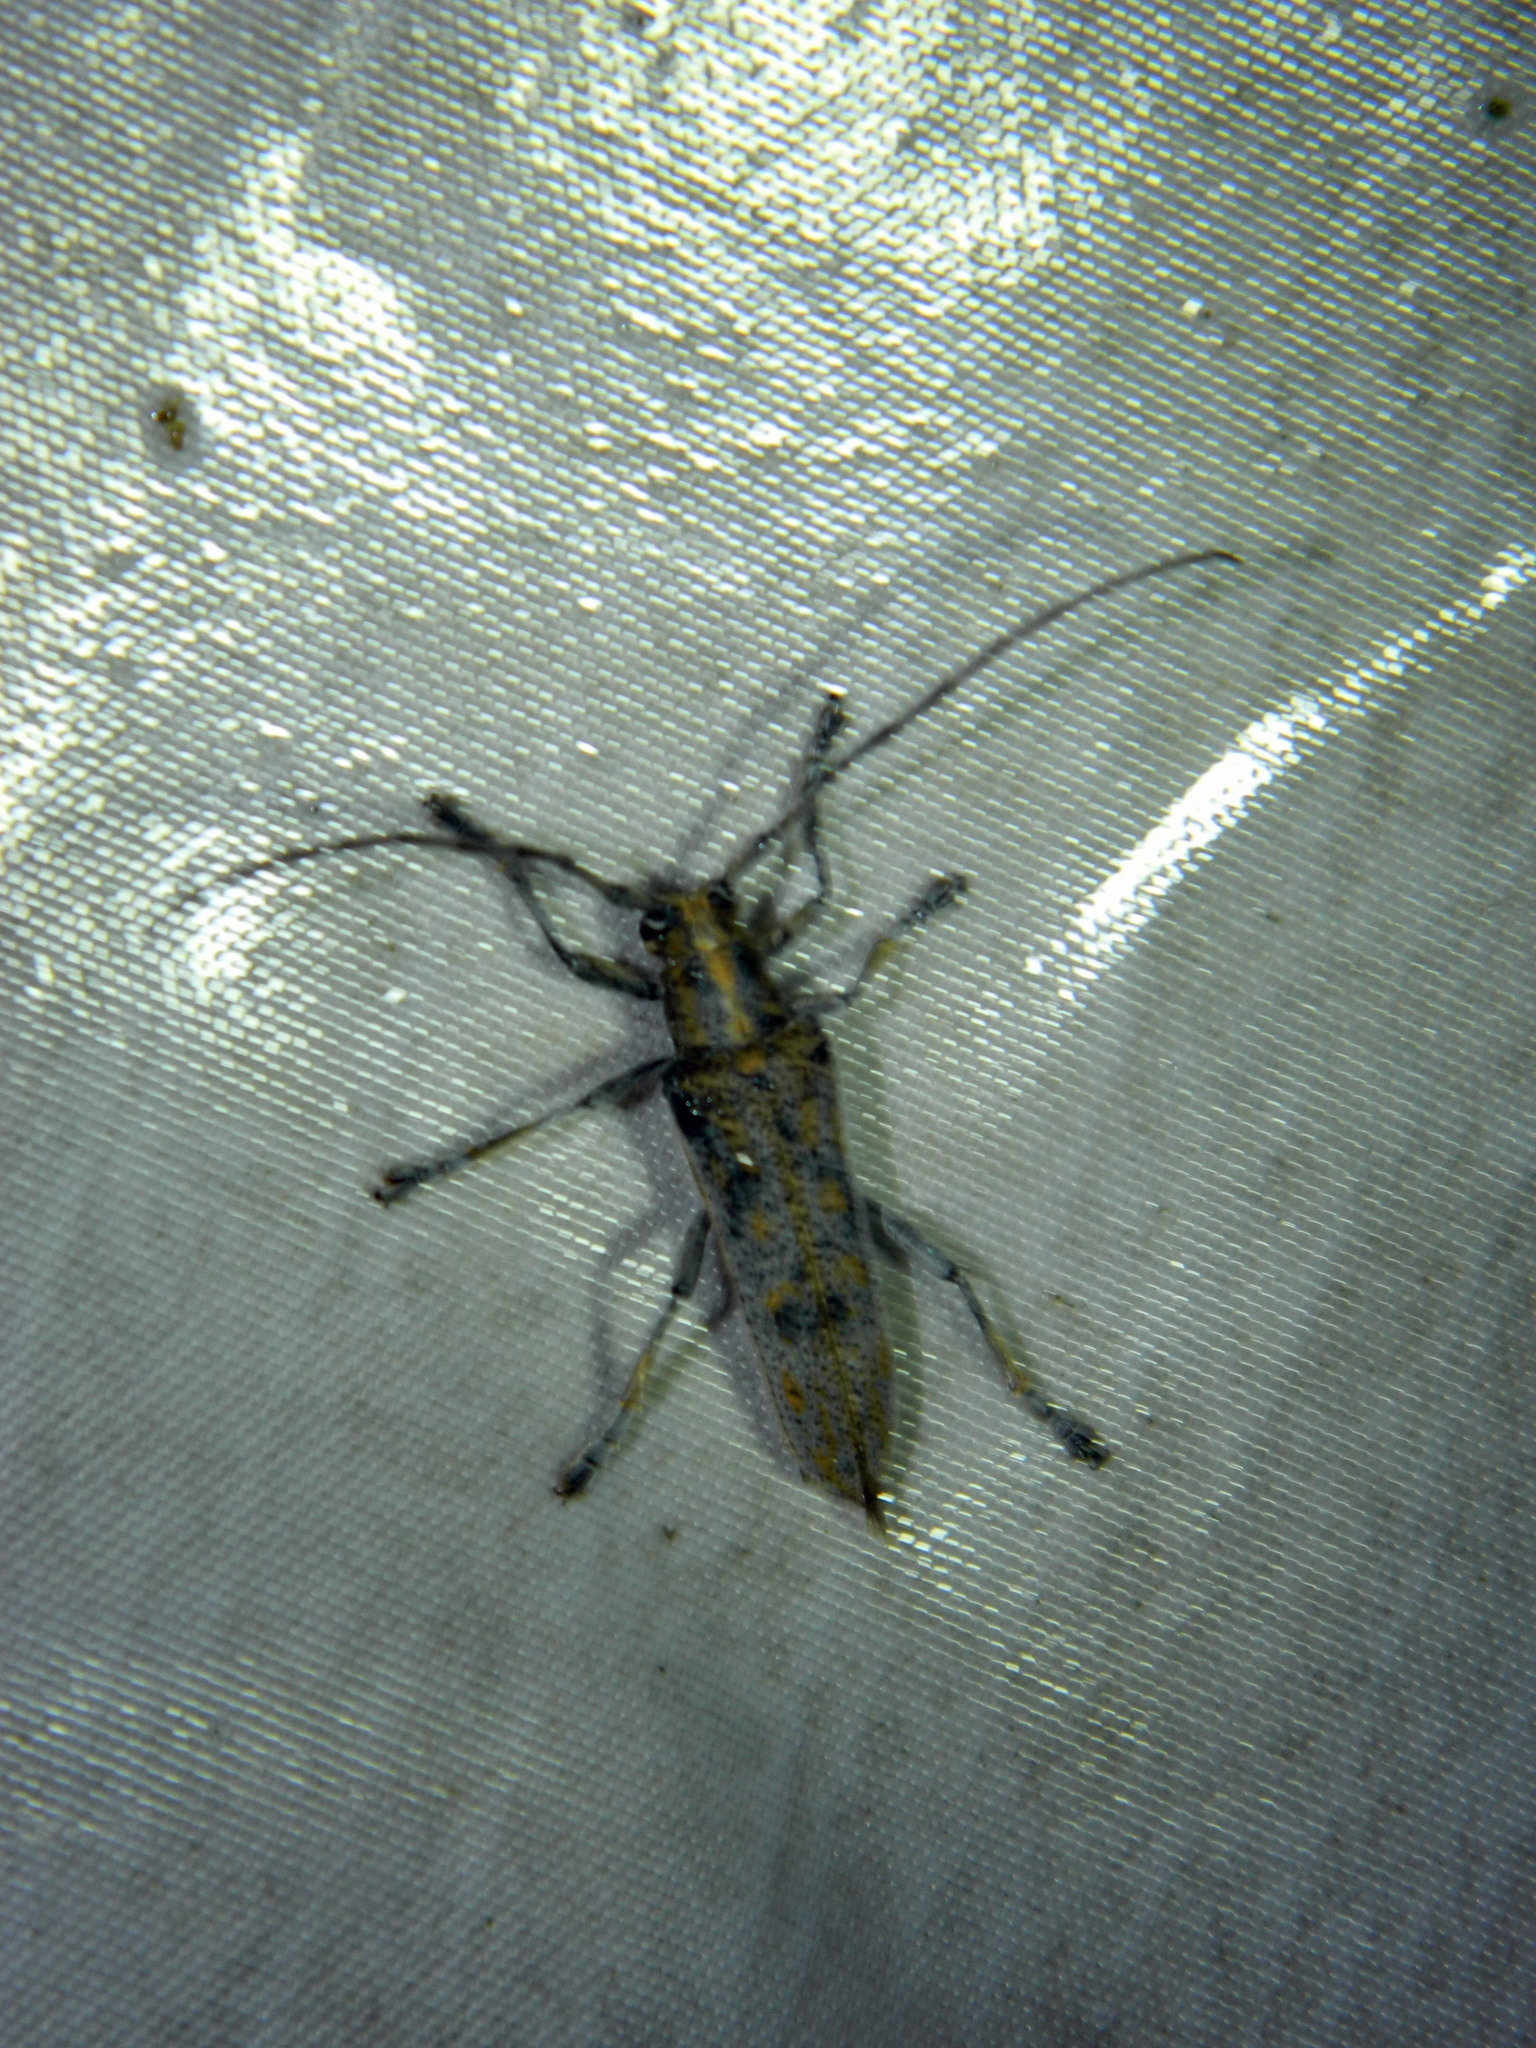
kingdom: Animalia
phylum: Arthropoda
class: Insecta
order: Coleoptera
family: Cerambycidae
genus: Saperda
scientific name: Saperda calcarata
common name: Poplar borer
